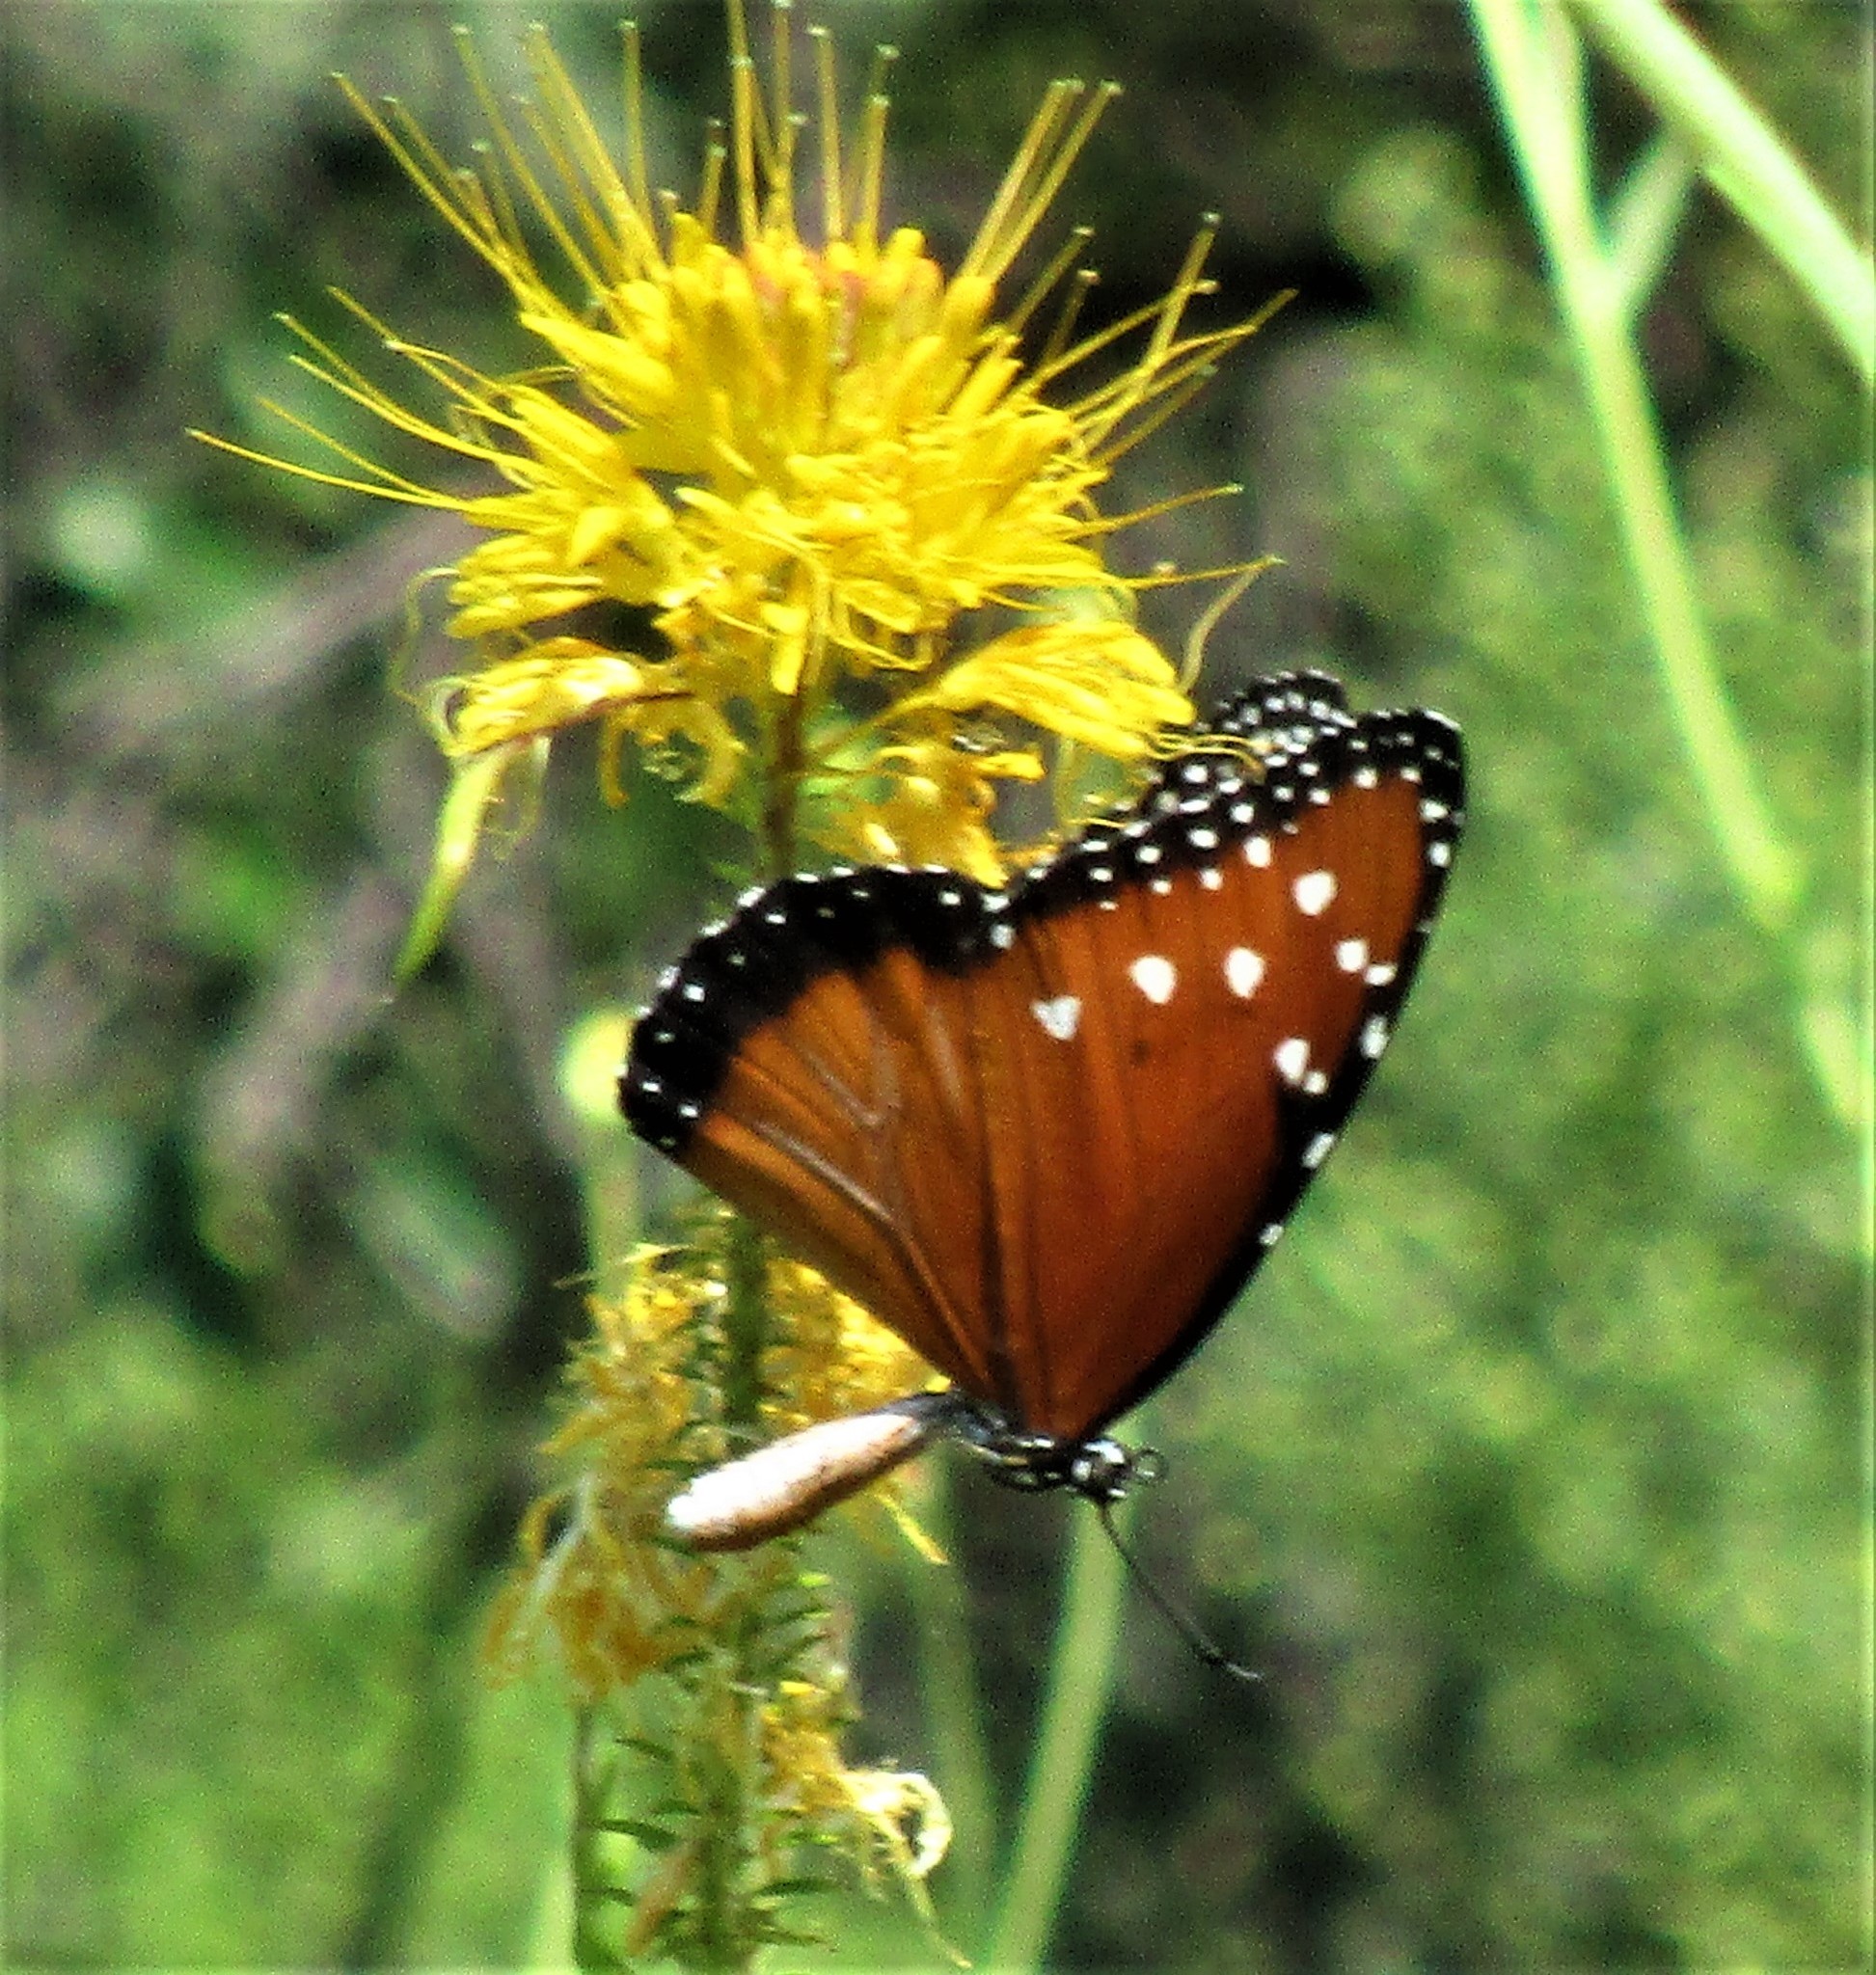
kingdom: Animalia
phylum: Arthropoda
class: Insecta
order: Lepidoptera
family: Nymphalidae
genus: Danaus
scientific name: Danaus gilippus
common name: Queen
